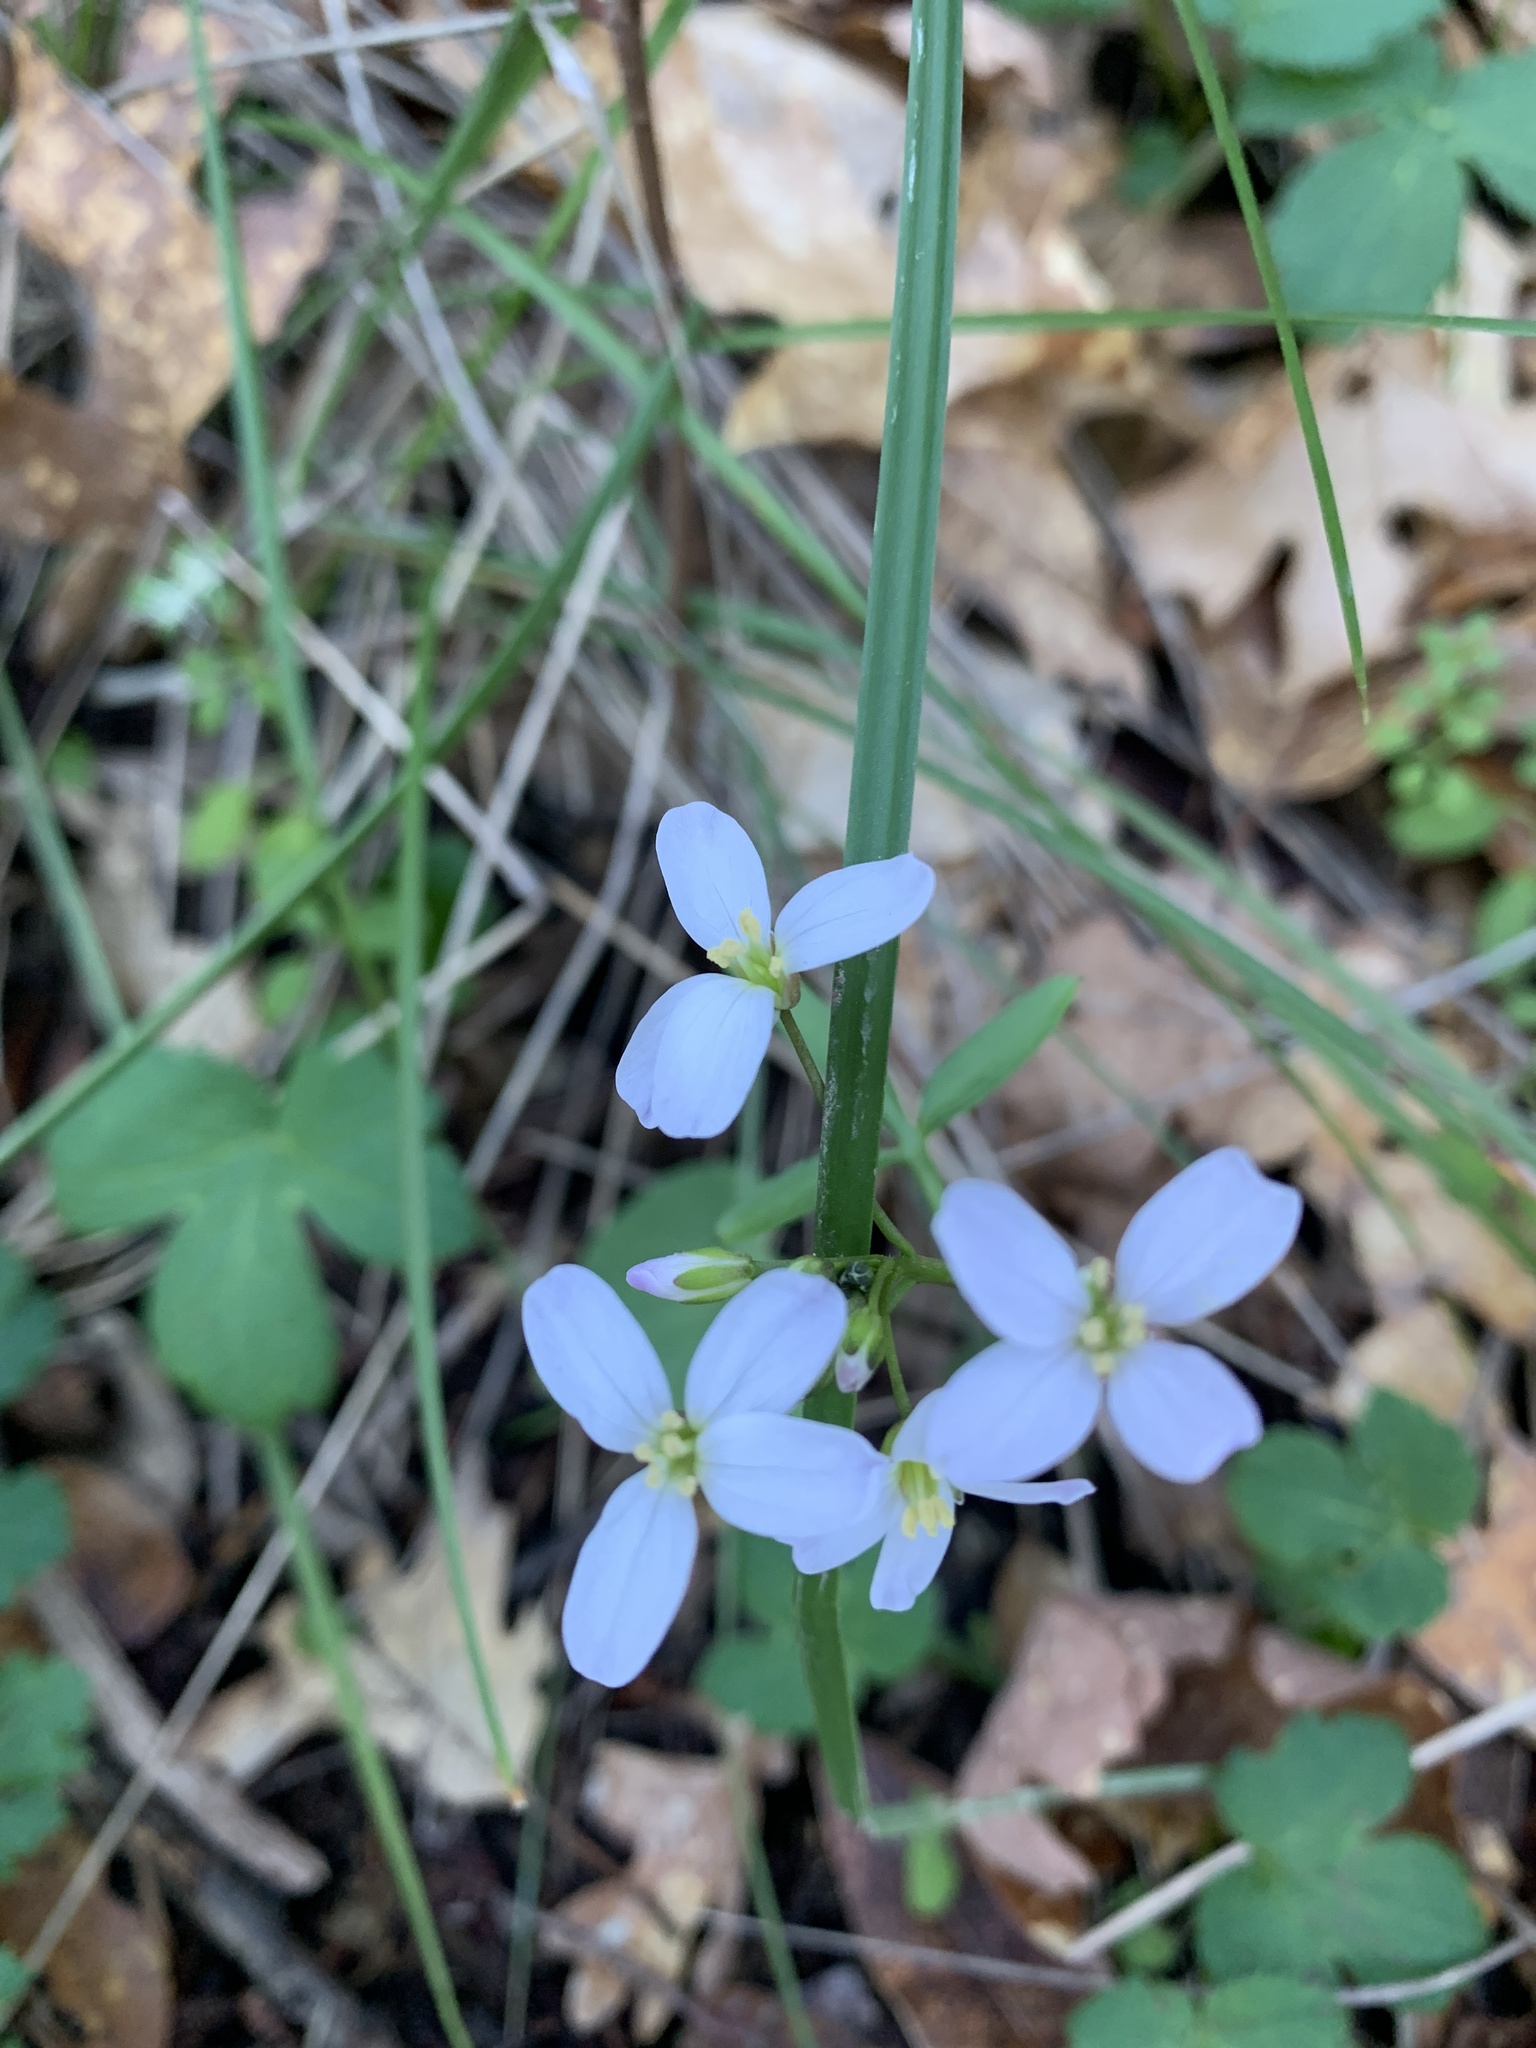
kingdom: Plantae
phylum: Tracheophyta
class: Magnoliopsida
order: Brassicales
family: Brassicaceae
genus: Cardamine
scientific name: Cardamine californica
